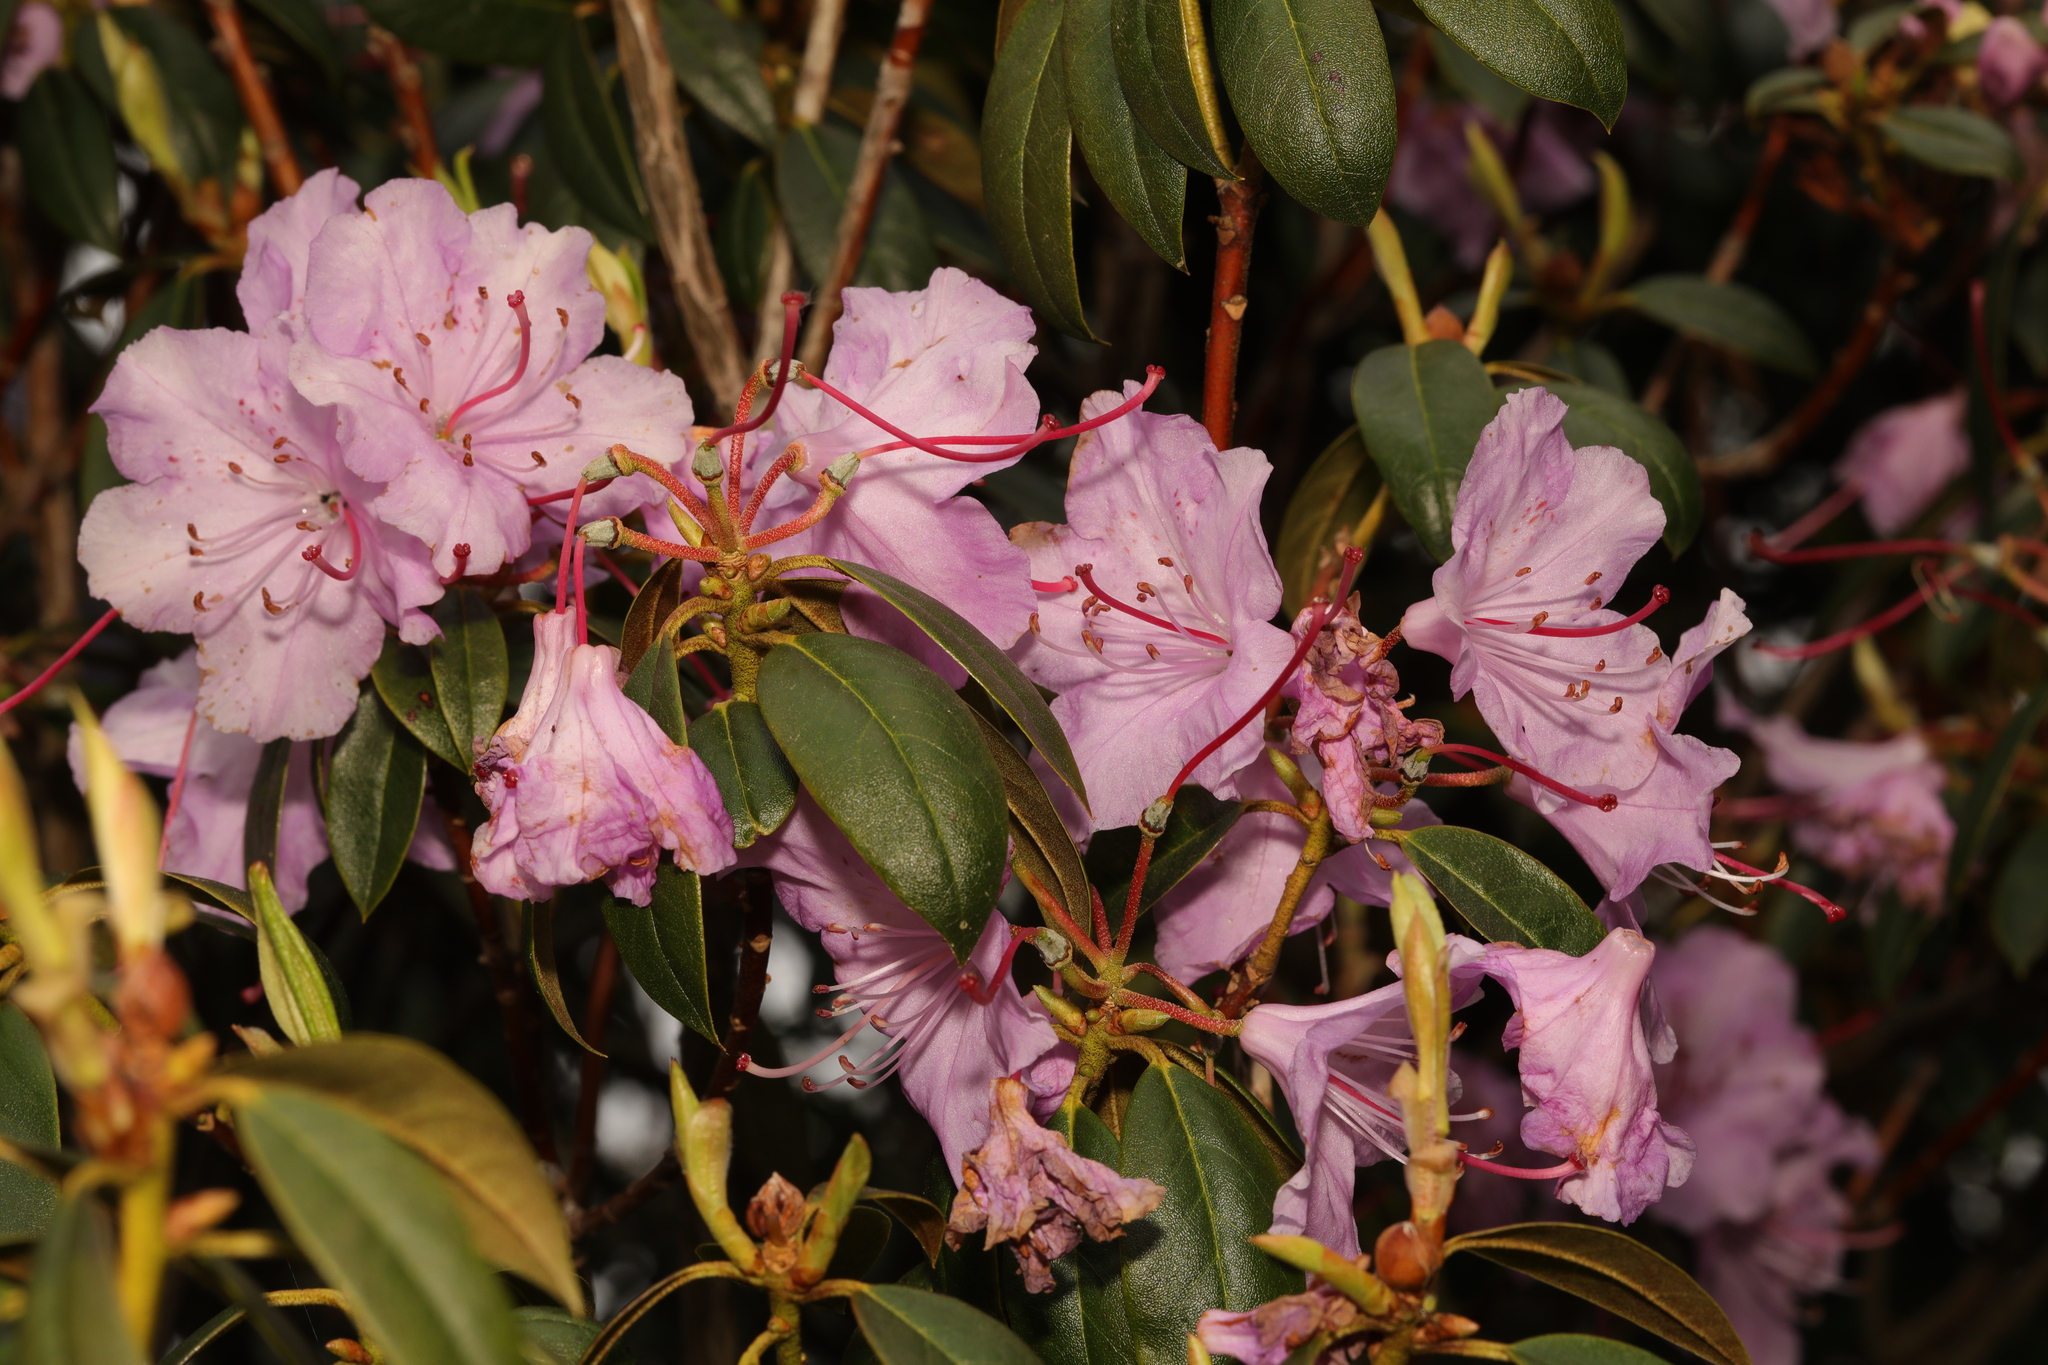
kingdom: Plantae
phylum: Tracheophyta
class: Magnoliopsida
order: Ericales
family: Ericaceae
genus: Rhododendron
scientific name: Rhododendron ponticum
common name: Rhododendron
